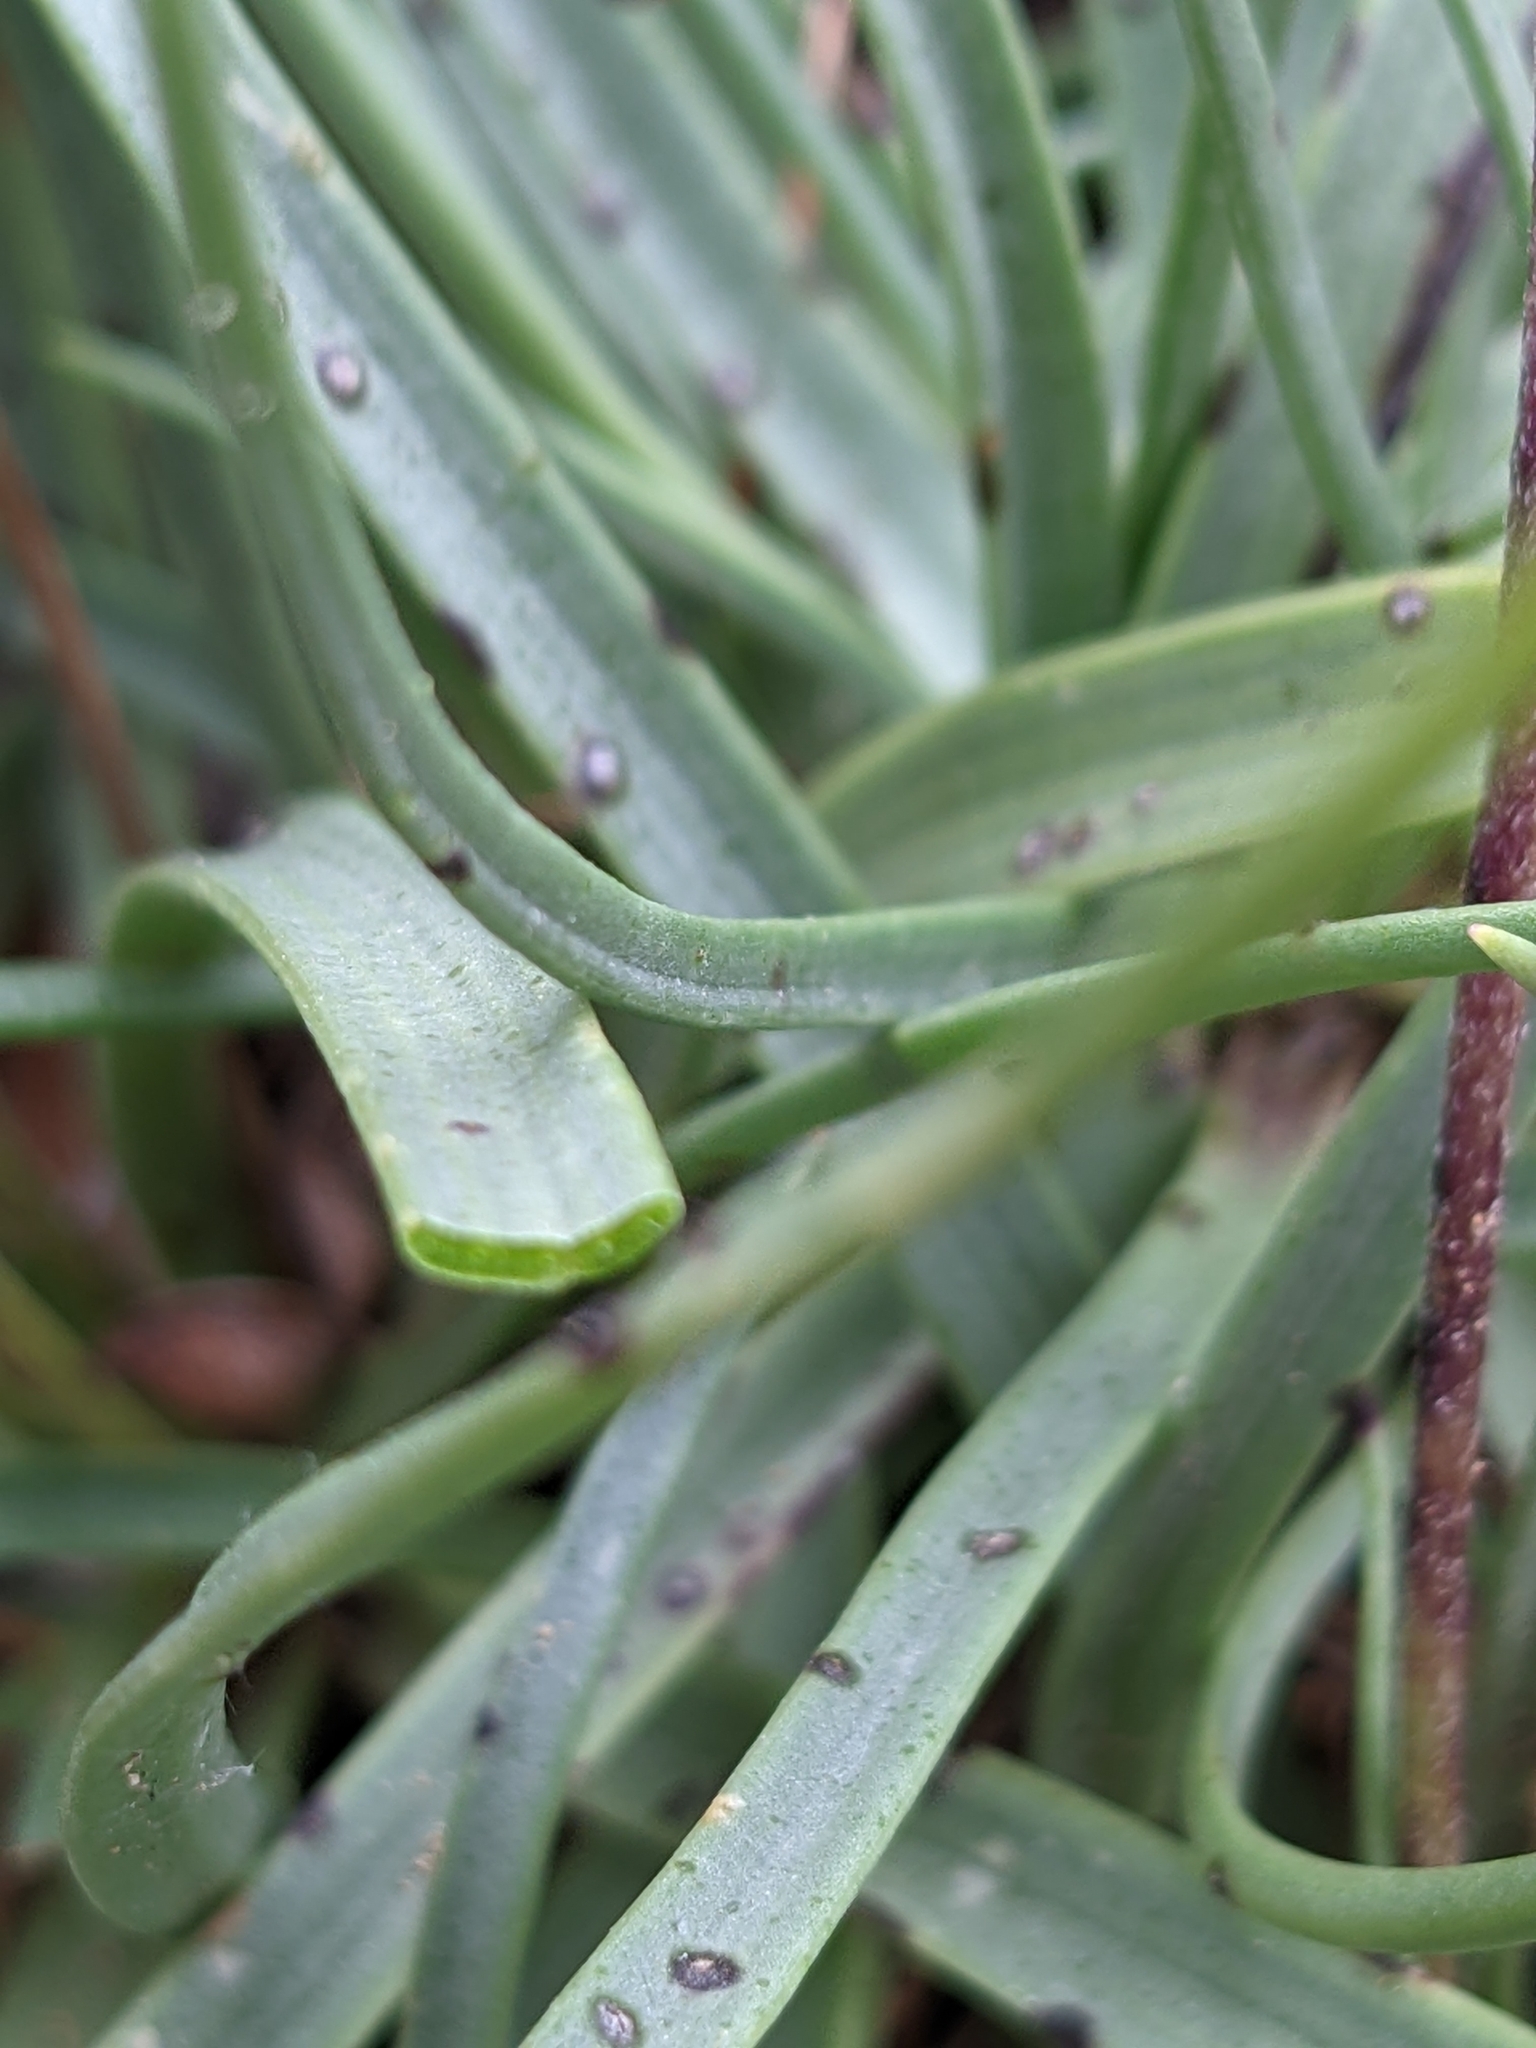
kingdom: Plantae
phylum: Tracheophyta
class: Magnoliopsida
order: Lamiales
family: Plantaginaceae
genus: Plantago
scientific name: Plantago maritima
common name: Sea plantain
